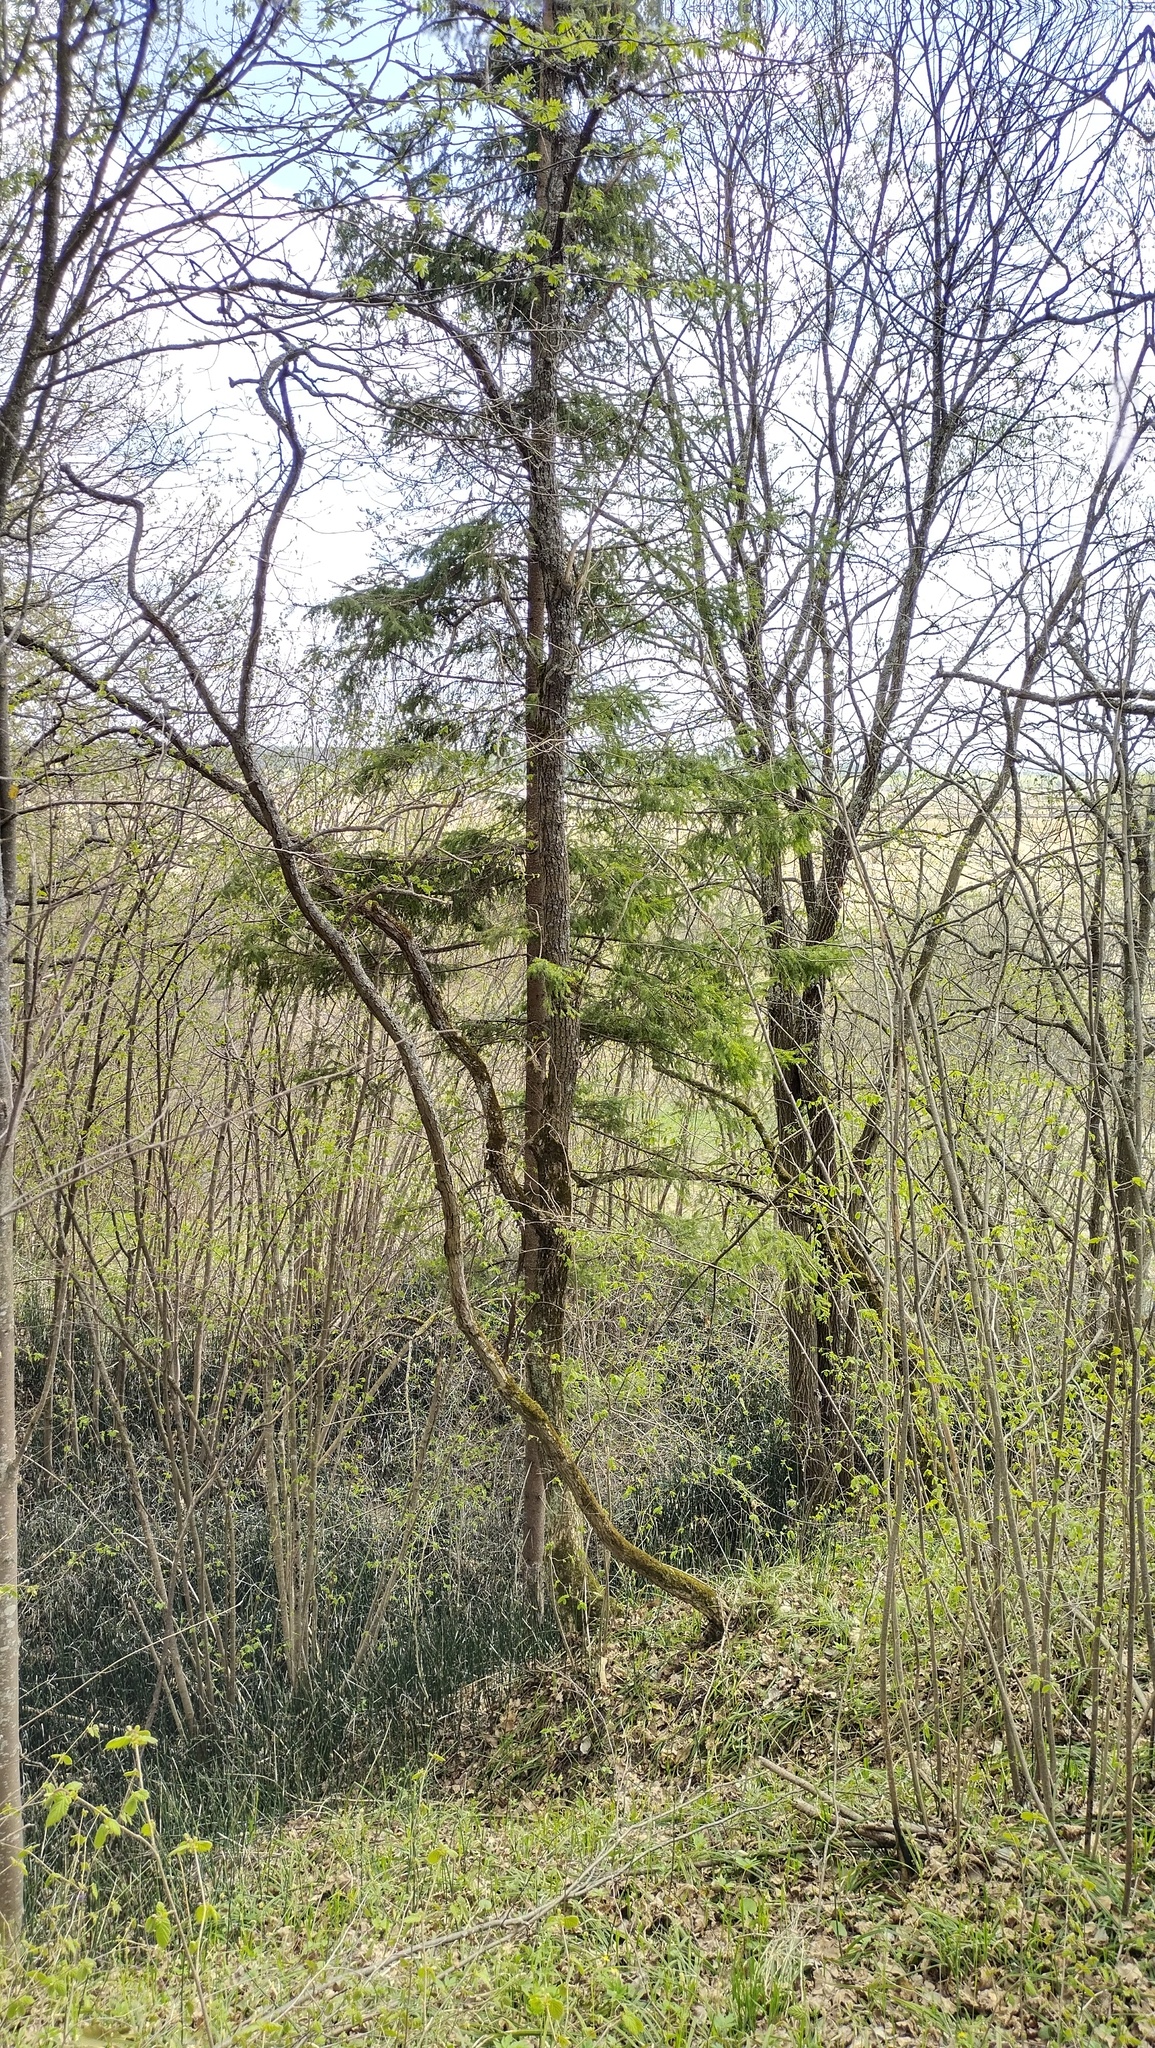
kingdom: Plantae
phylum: Tracheophyta
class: Pinopsida
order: Pinales
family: Pinaceae
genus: Picea
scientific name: Picea abies
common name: Norway spruce
